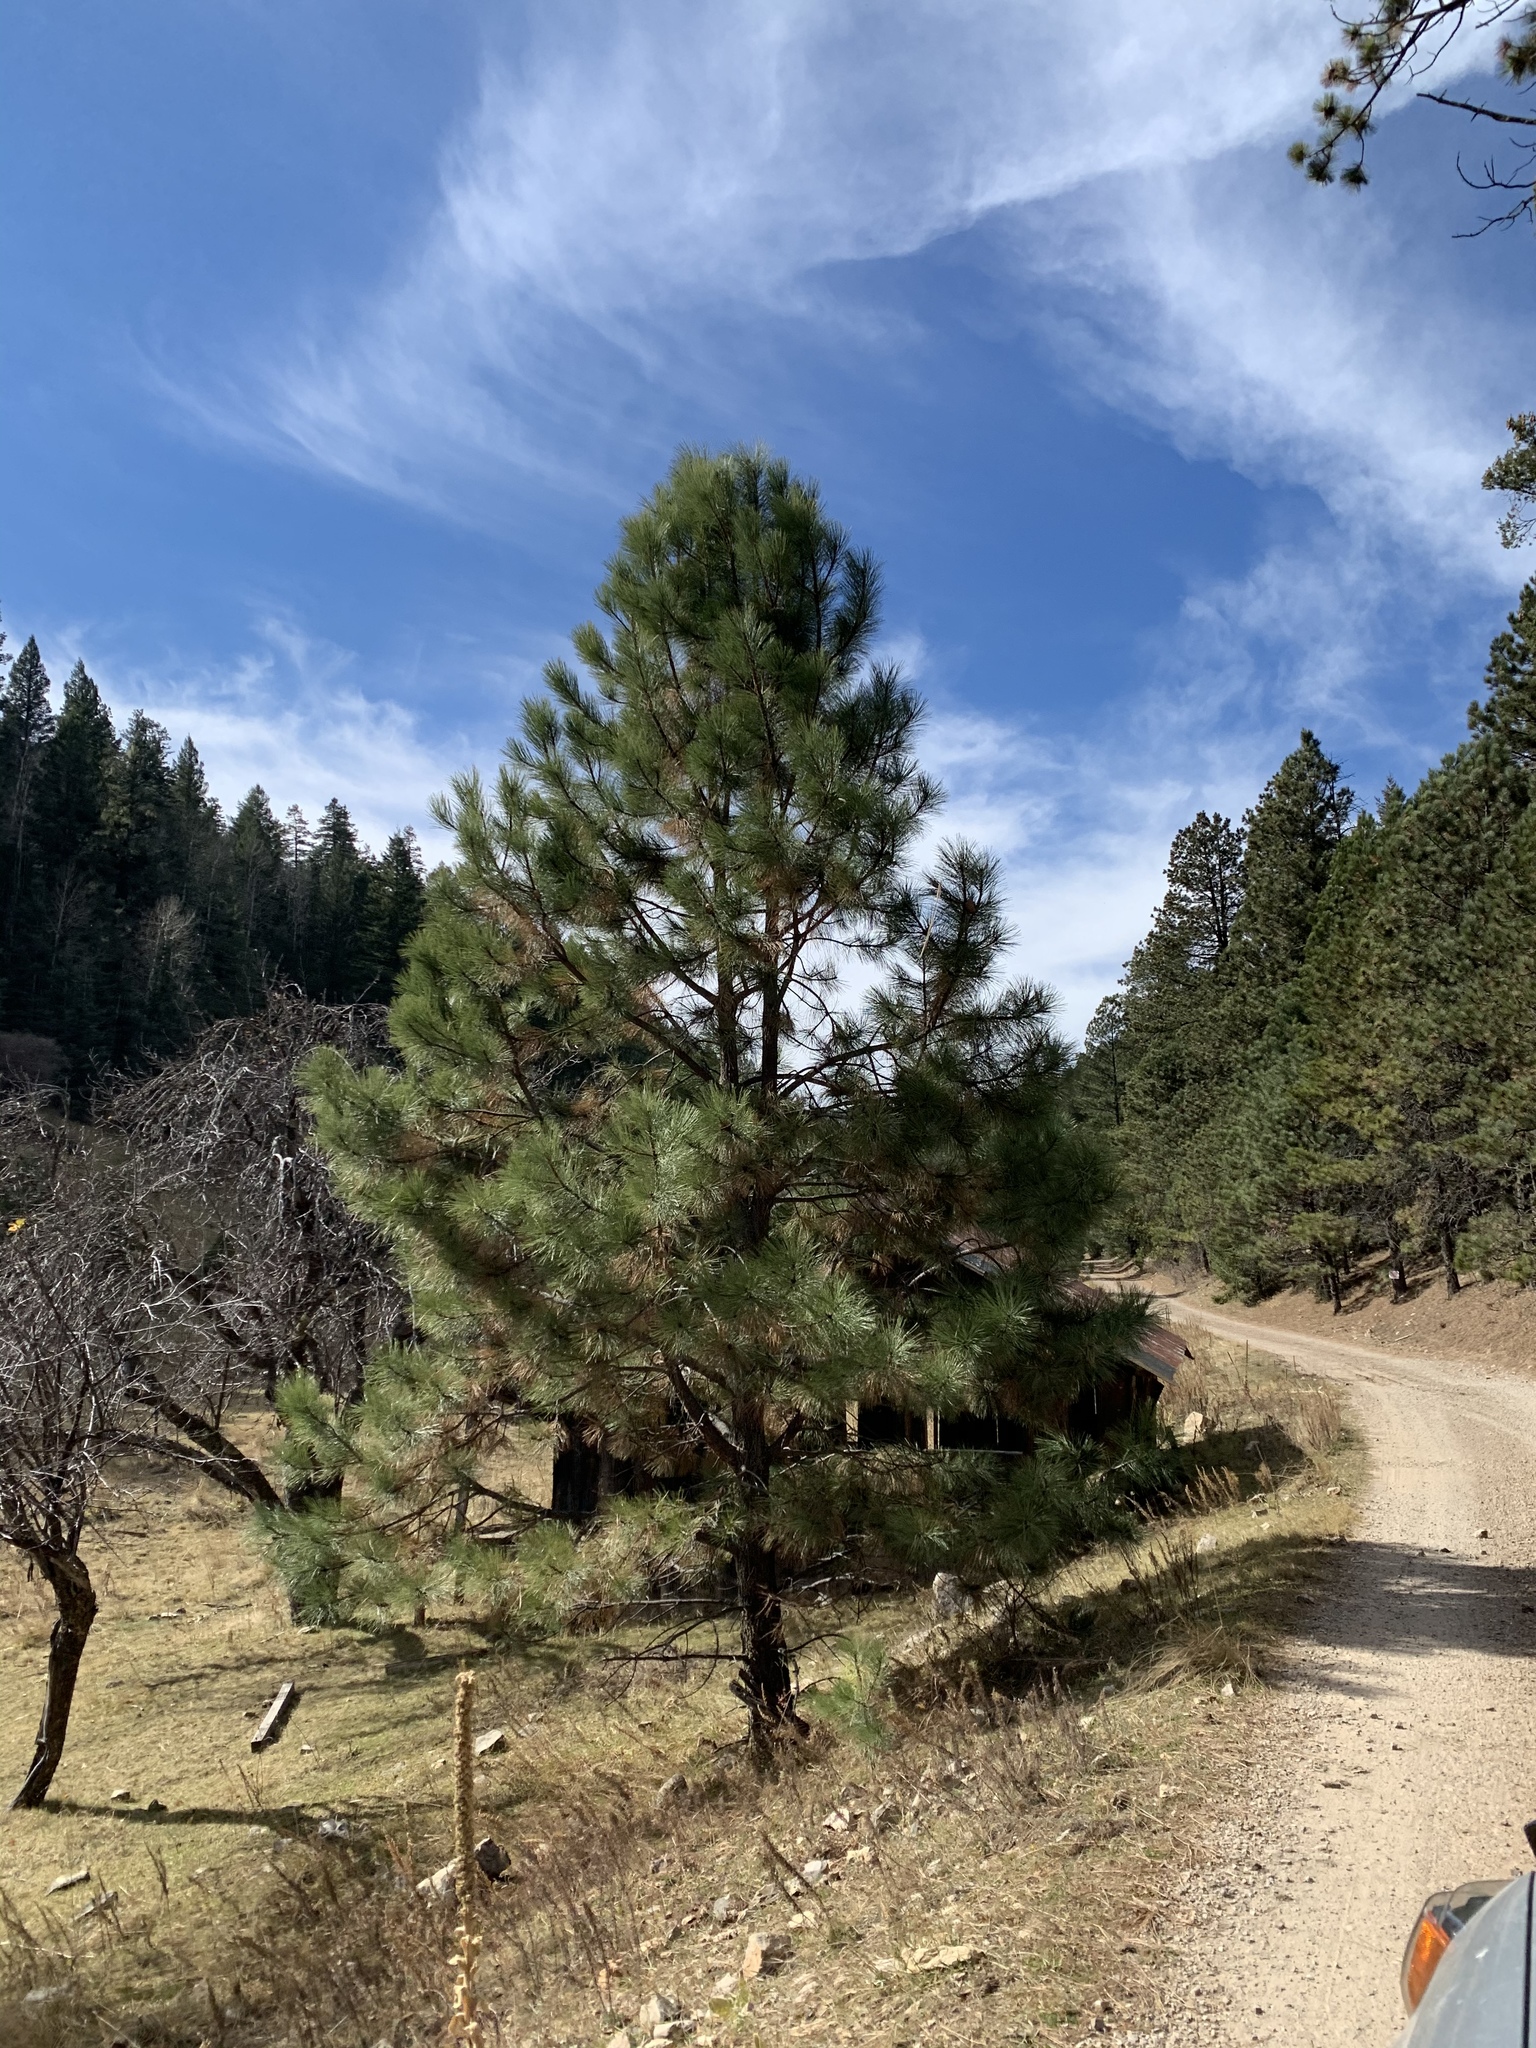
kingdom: Plantae
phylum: Tracheophyta
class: Pinopsida
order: Pinales
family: Pinaceae
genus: Pinus
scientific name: Pinus ponderosa
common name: Western yellow-pine
